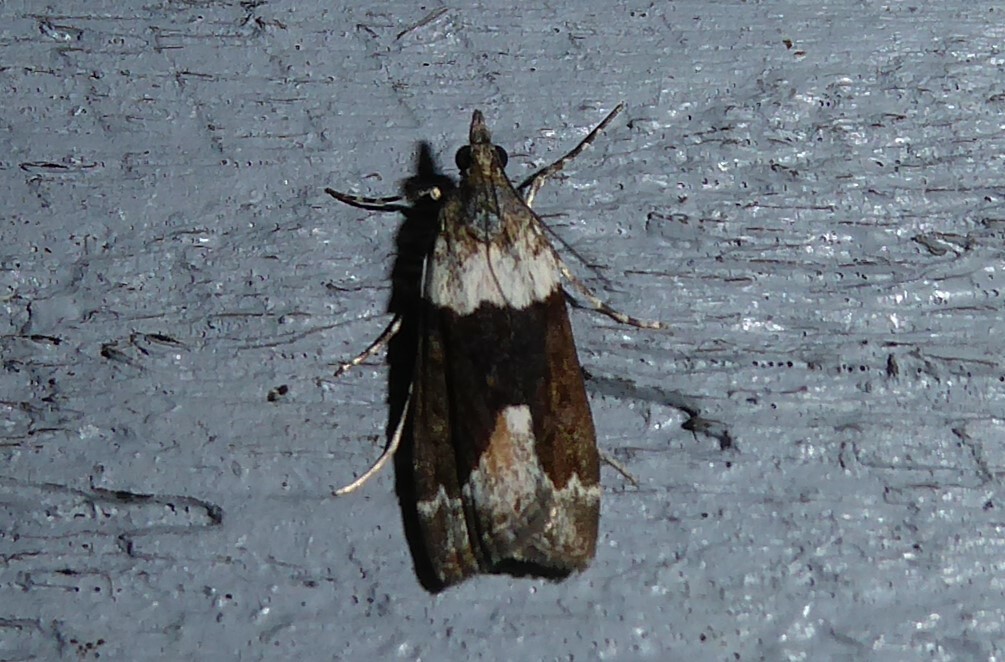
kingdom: Animalia
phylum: Arthropoda
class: Insecta
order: Lepidoptera
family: Crambidae
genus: Eudonia
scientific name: Eudonia submarginalis
